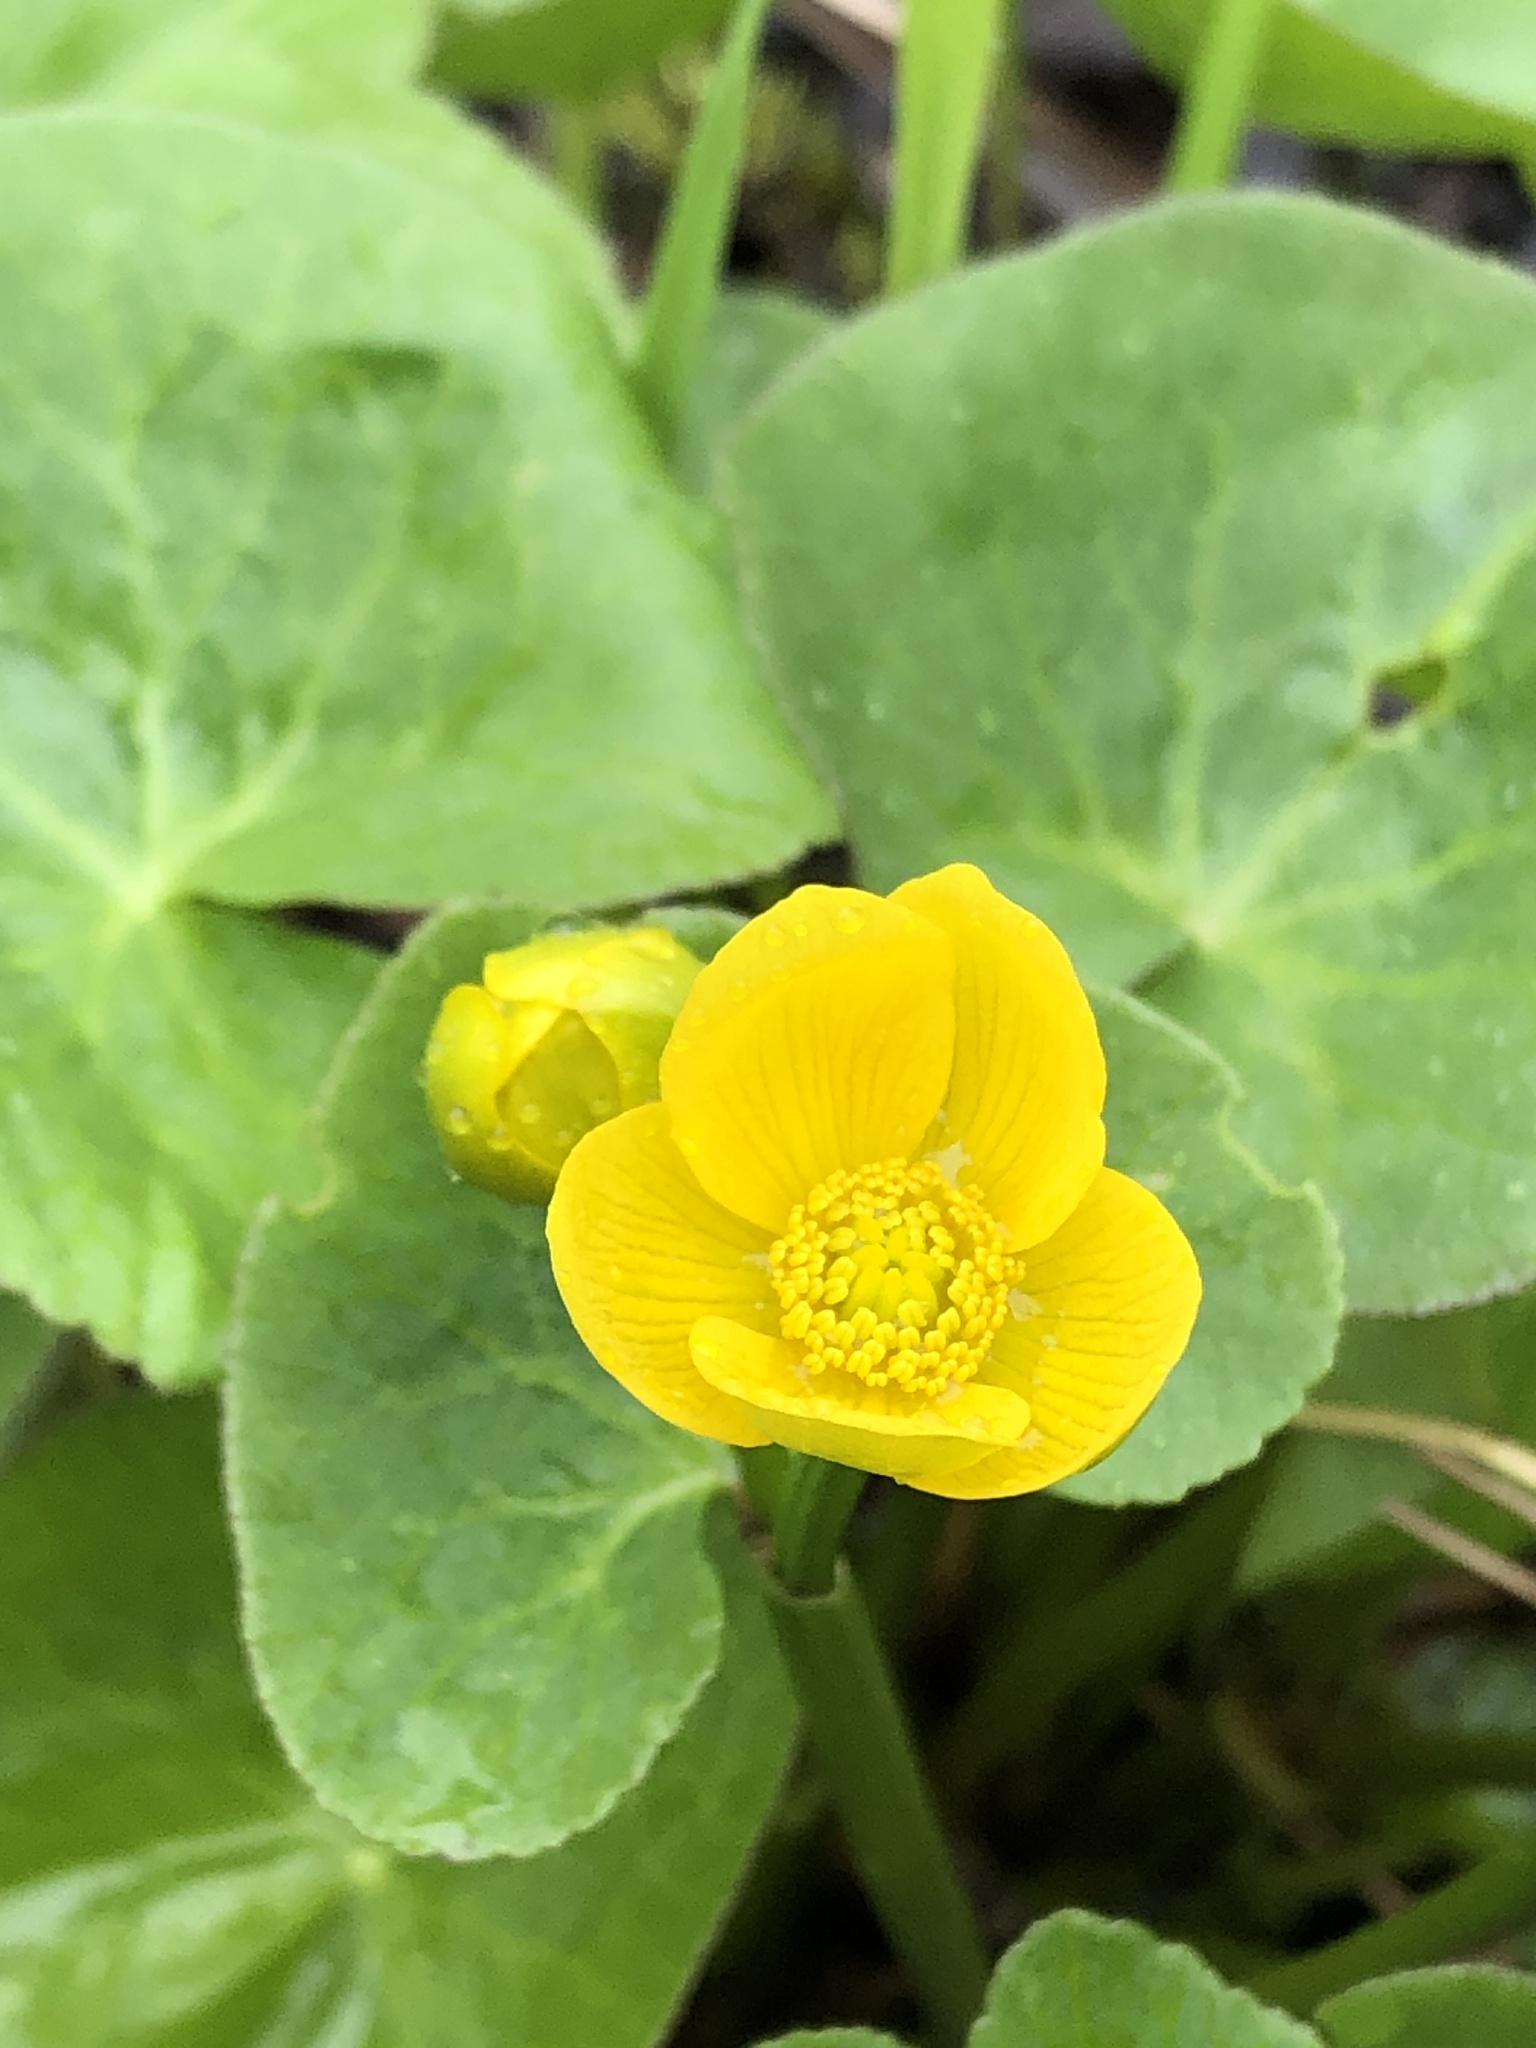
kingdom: Plantae
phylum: Tracheophyta
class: Magnoliopsida
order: Ranunculales
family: Ranunculaceae
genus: Caltha
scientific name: Caltha palustris
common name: Marsh marigold
